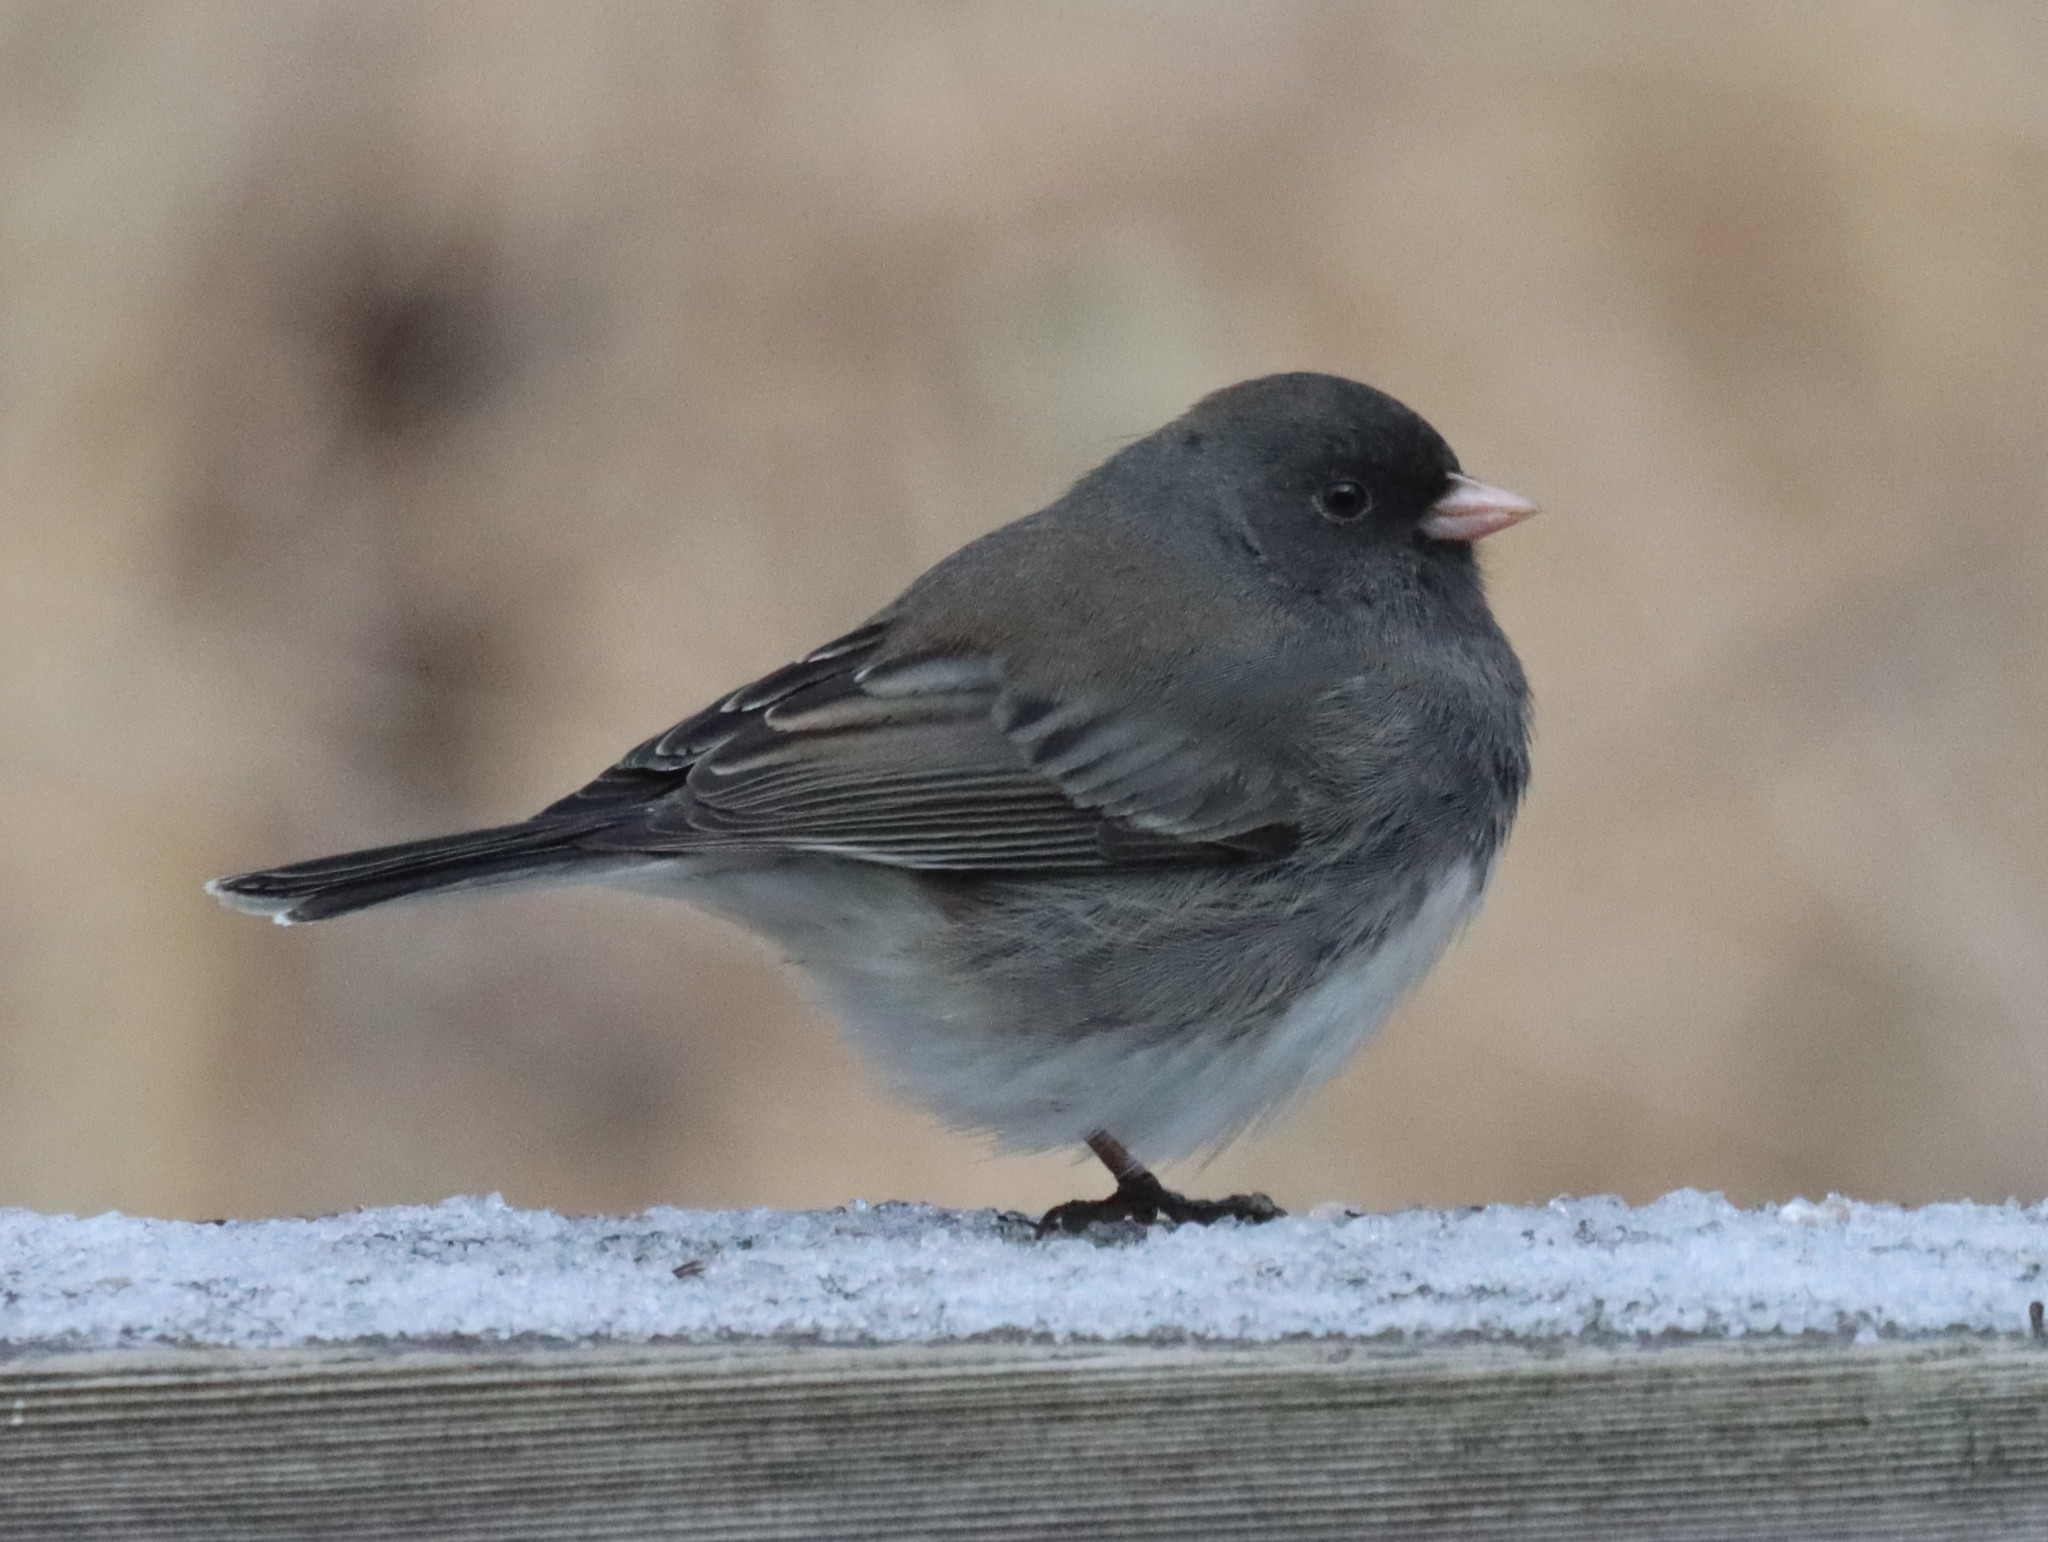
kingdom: Animalia
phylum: Chordata
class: Aves
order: Passeriformes
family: Passerellidae
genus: Junco
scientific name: Junco hyemalis
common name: Dark-eyed junco
